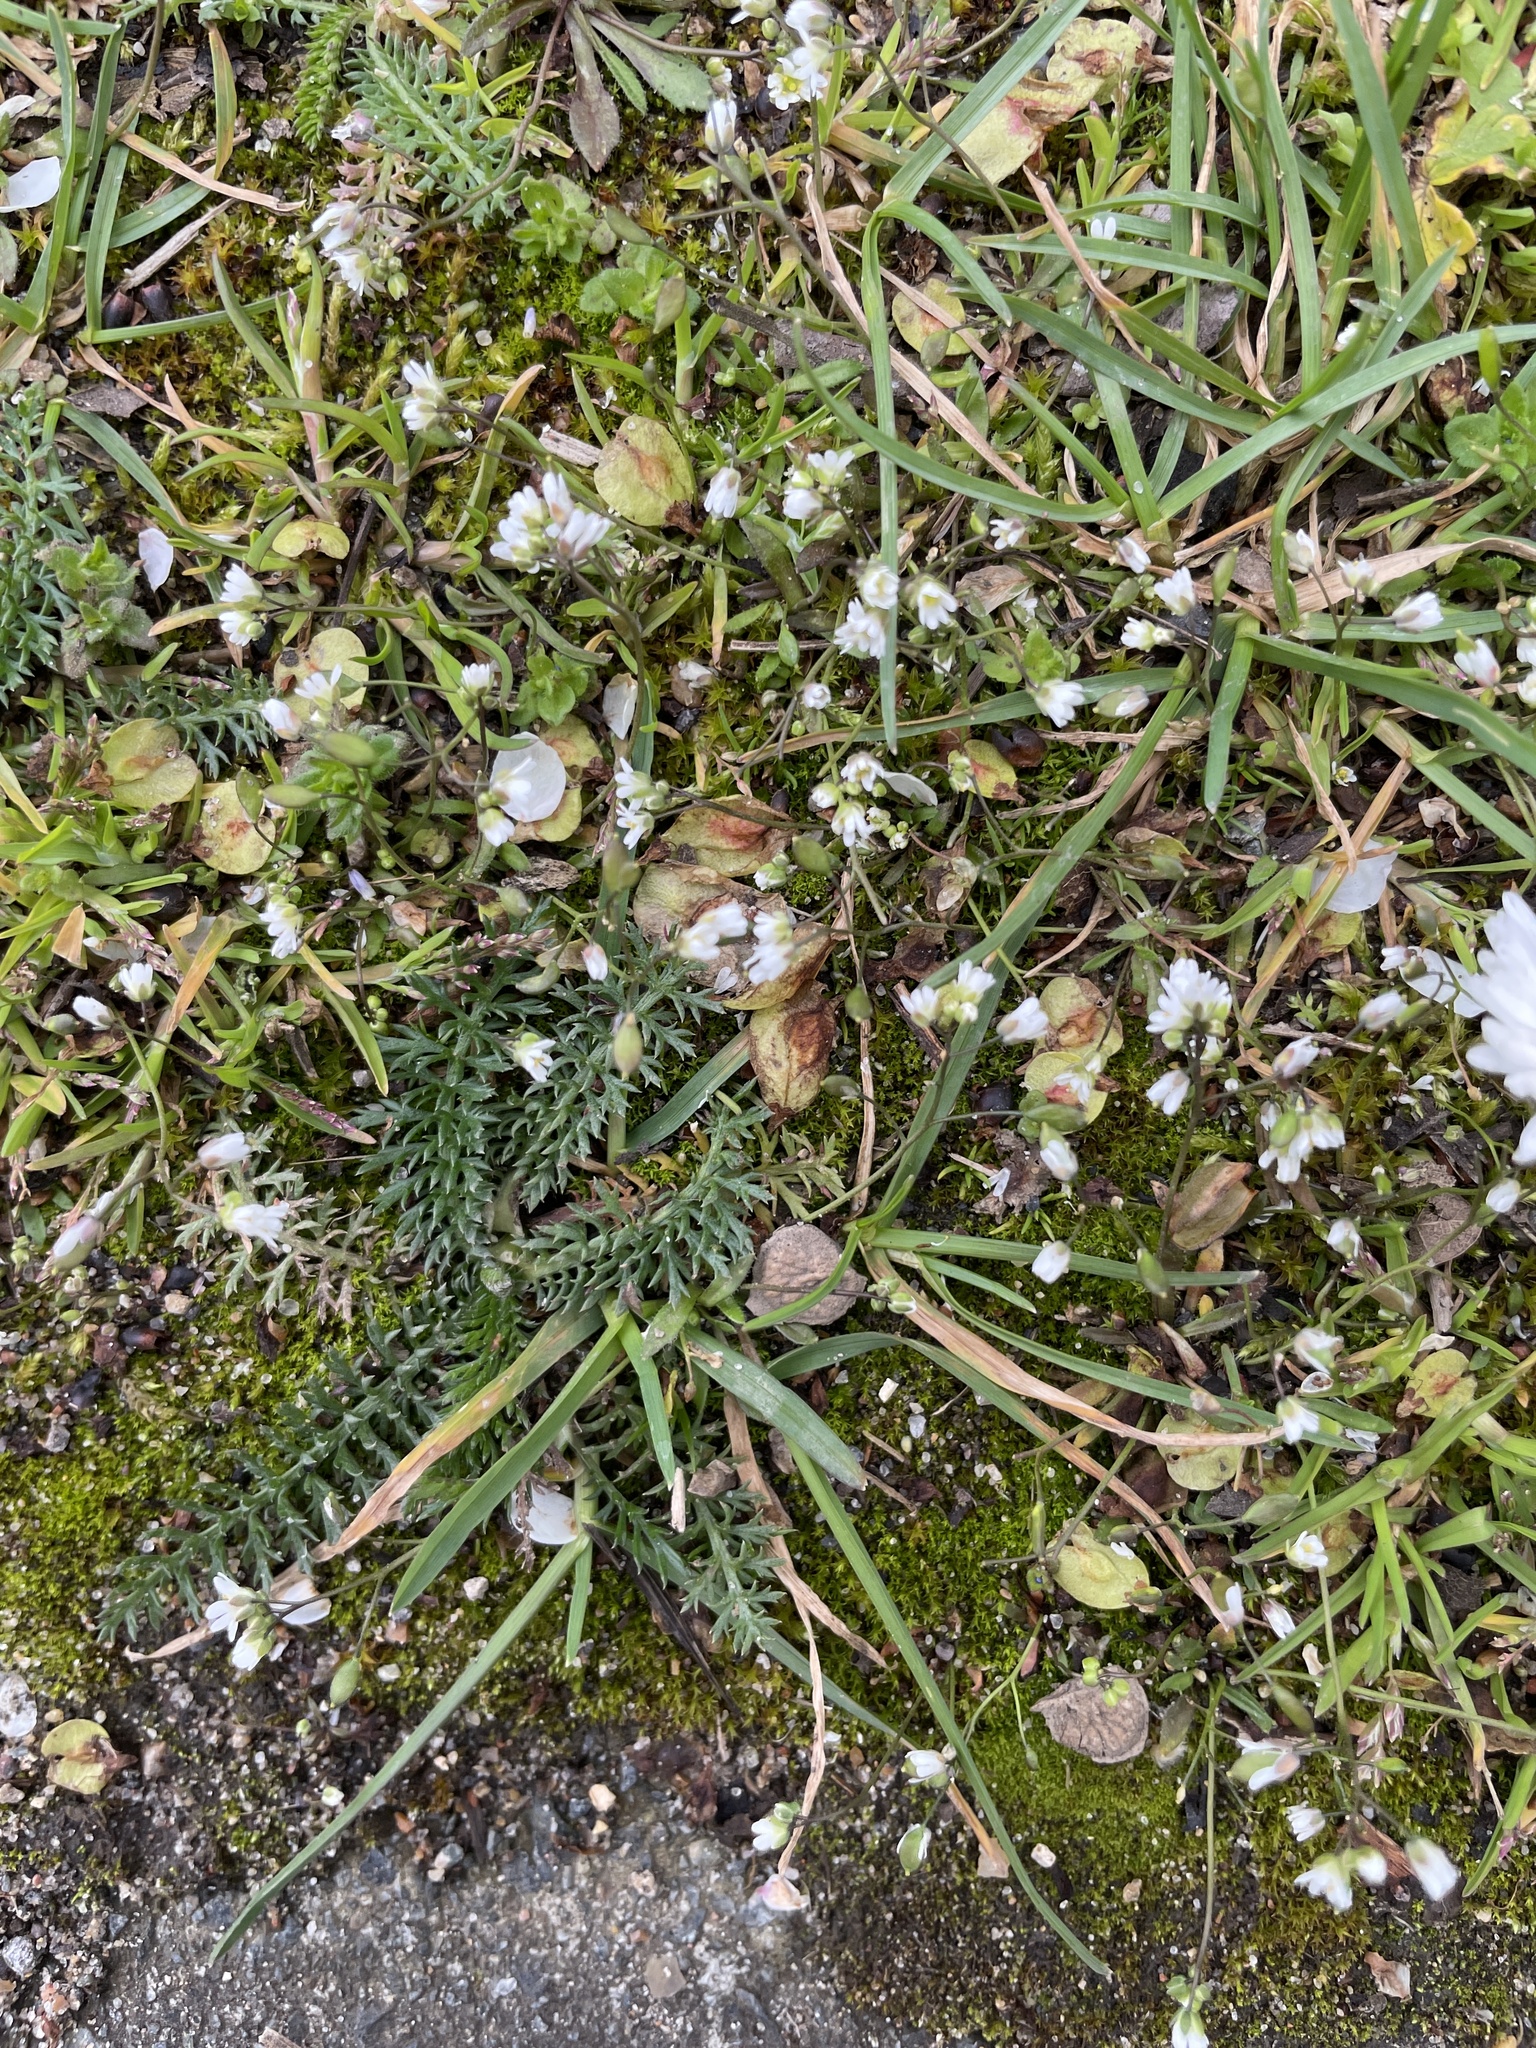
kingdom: Plantae
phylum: Tracheophyta
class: Magnoliopsida
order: Brassicales
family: Brassicaceae
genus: Draba
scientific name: Draba verna
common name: Spring draba
